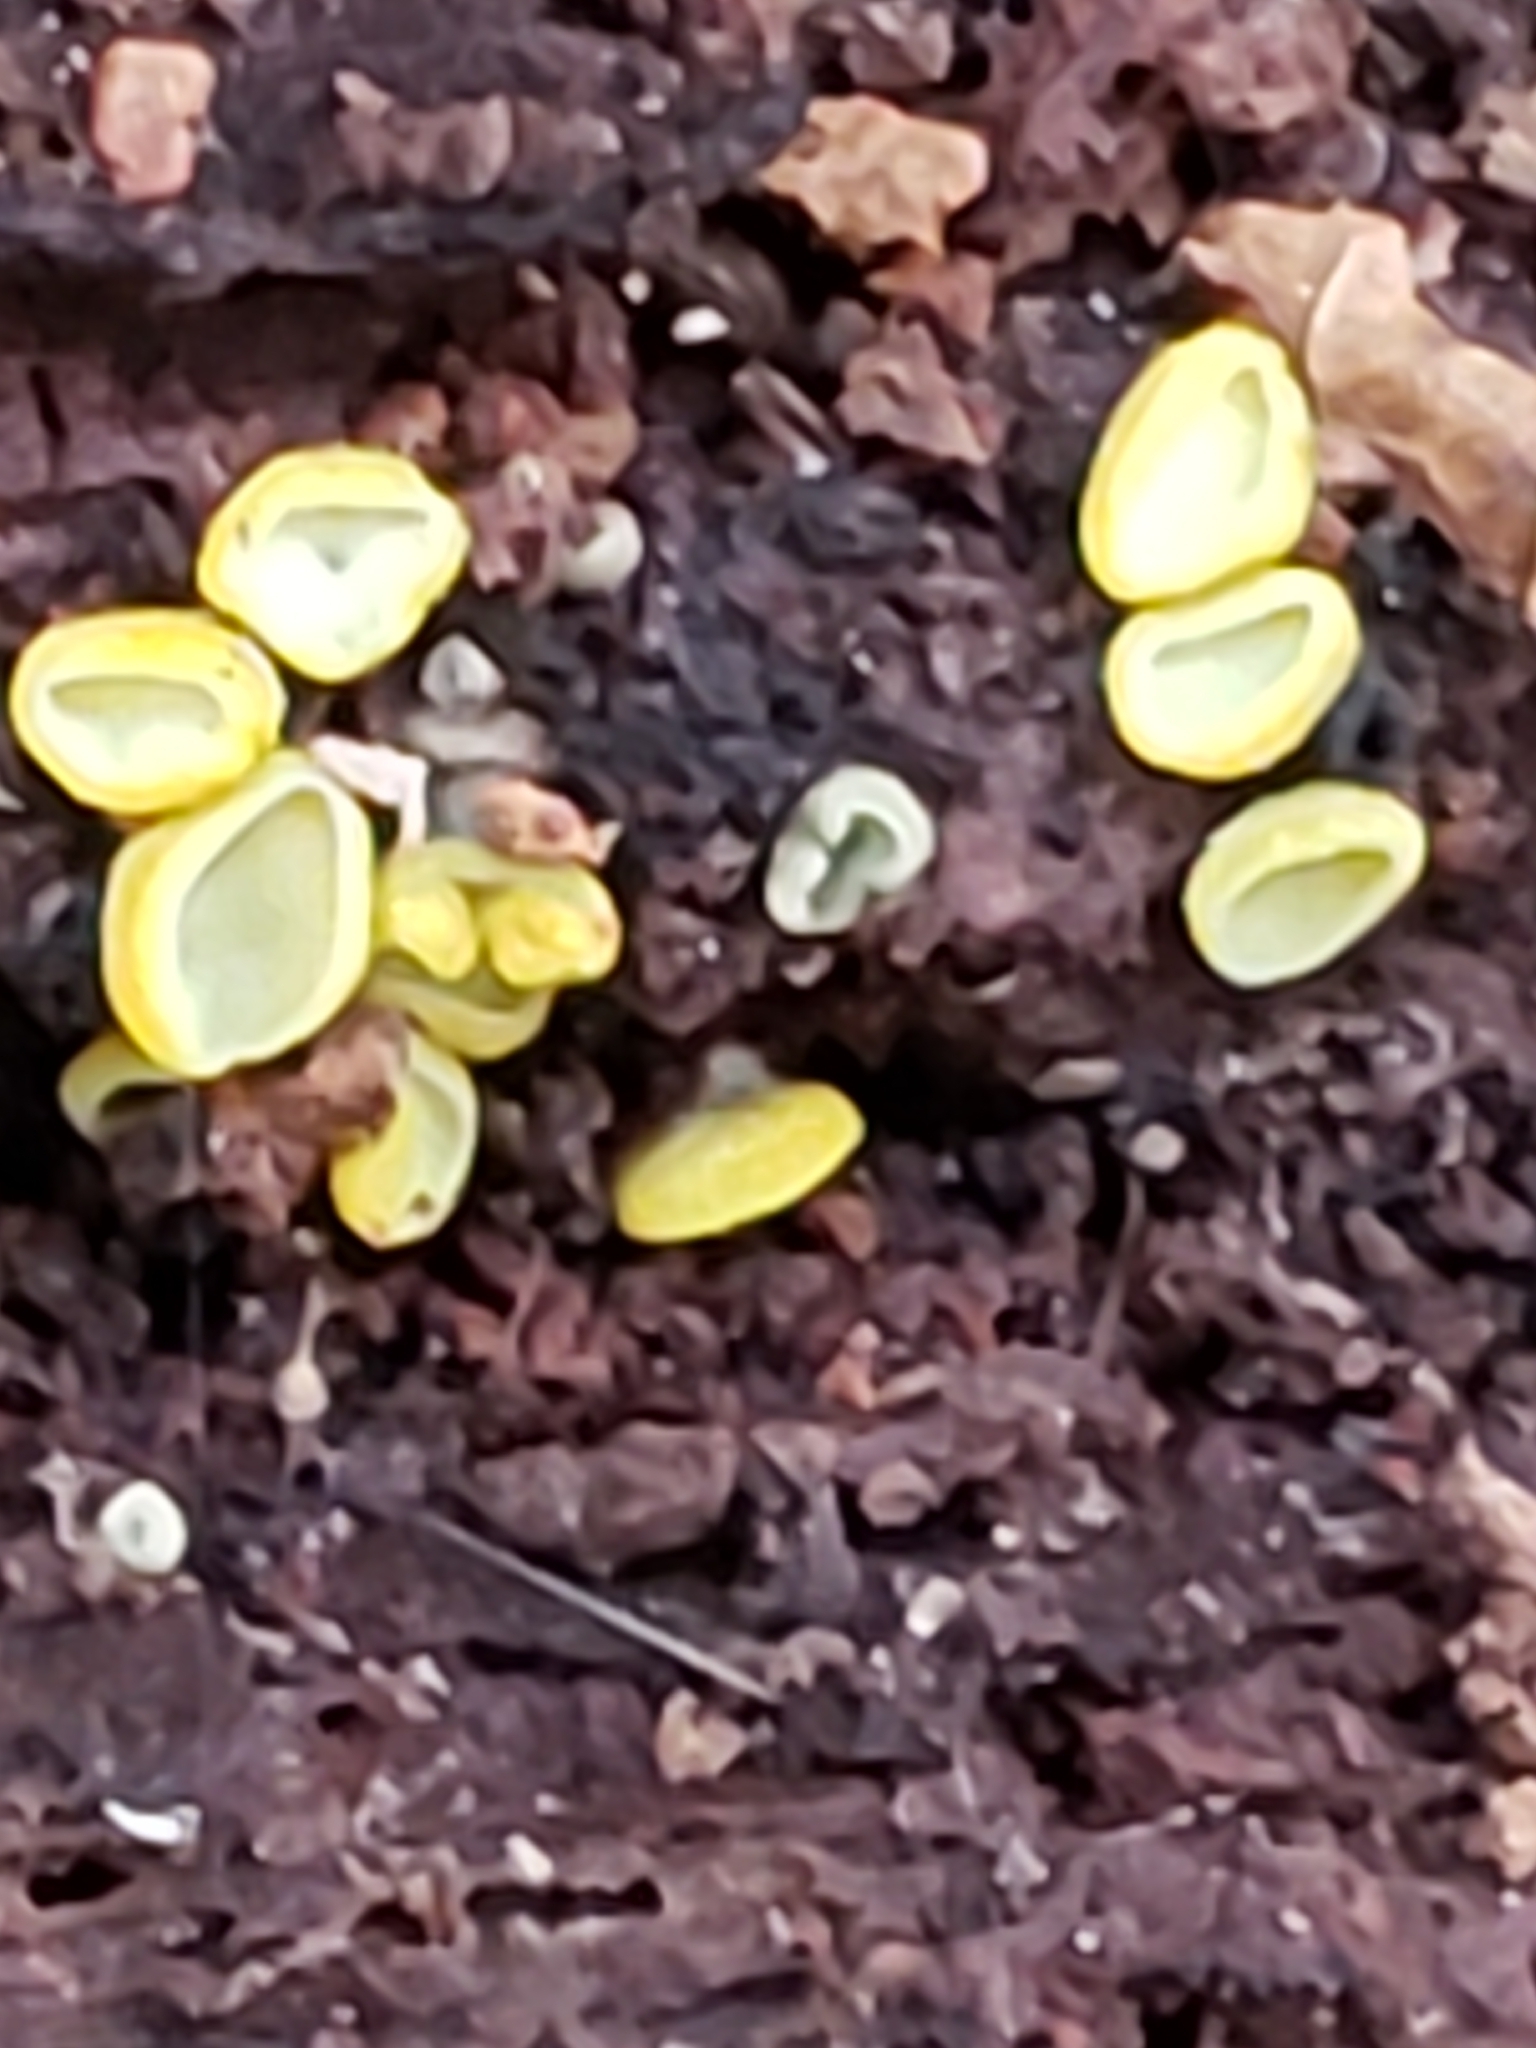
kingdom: Fungi
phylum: Ascomycota
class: Leotiomycetes
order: Helotiales
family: Chlorospleniaceae
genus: Chlorosplenium
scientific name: Chlorosplenium chlora
